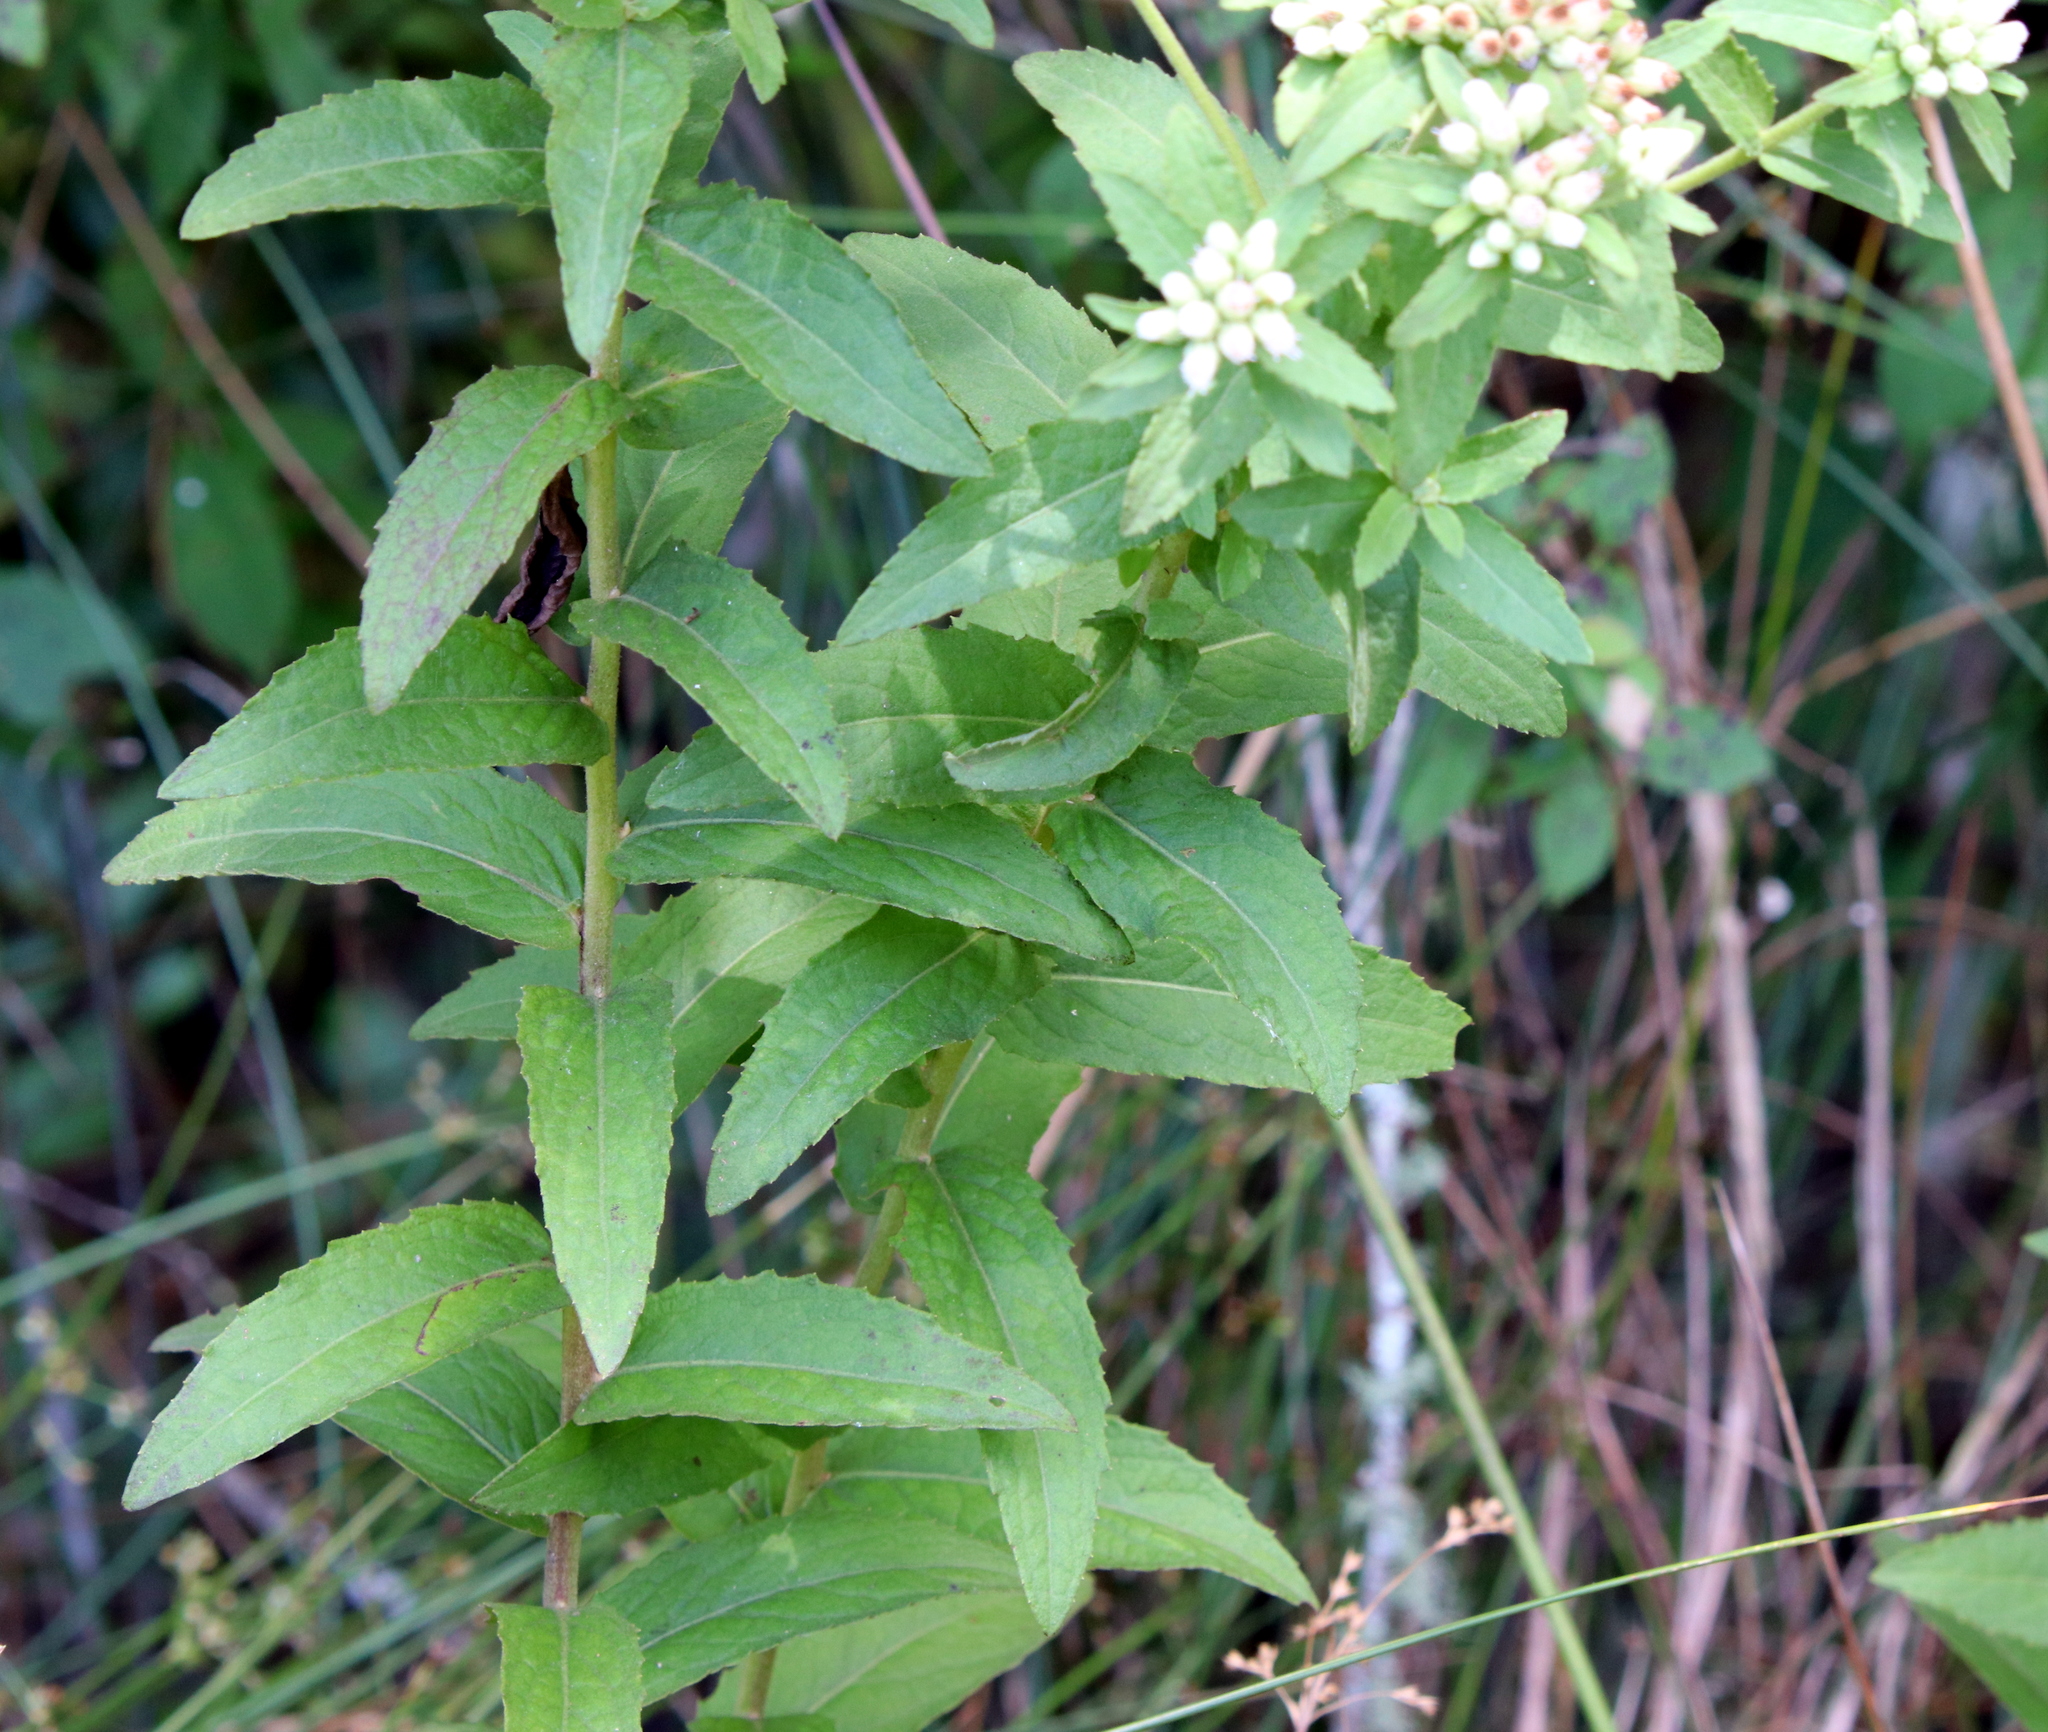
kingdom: Plantae
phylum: Tracheophyta
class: Magnoliopsida
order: Asterales
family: Asteraceae
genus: Pluchea
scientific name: Pluchea foetida
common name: Stinking camphorweed
